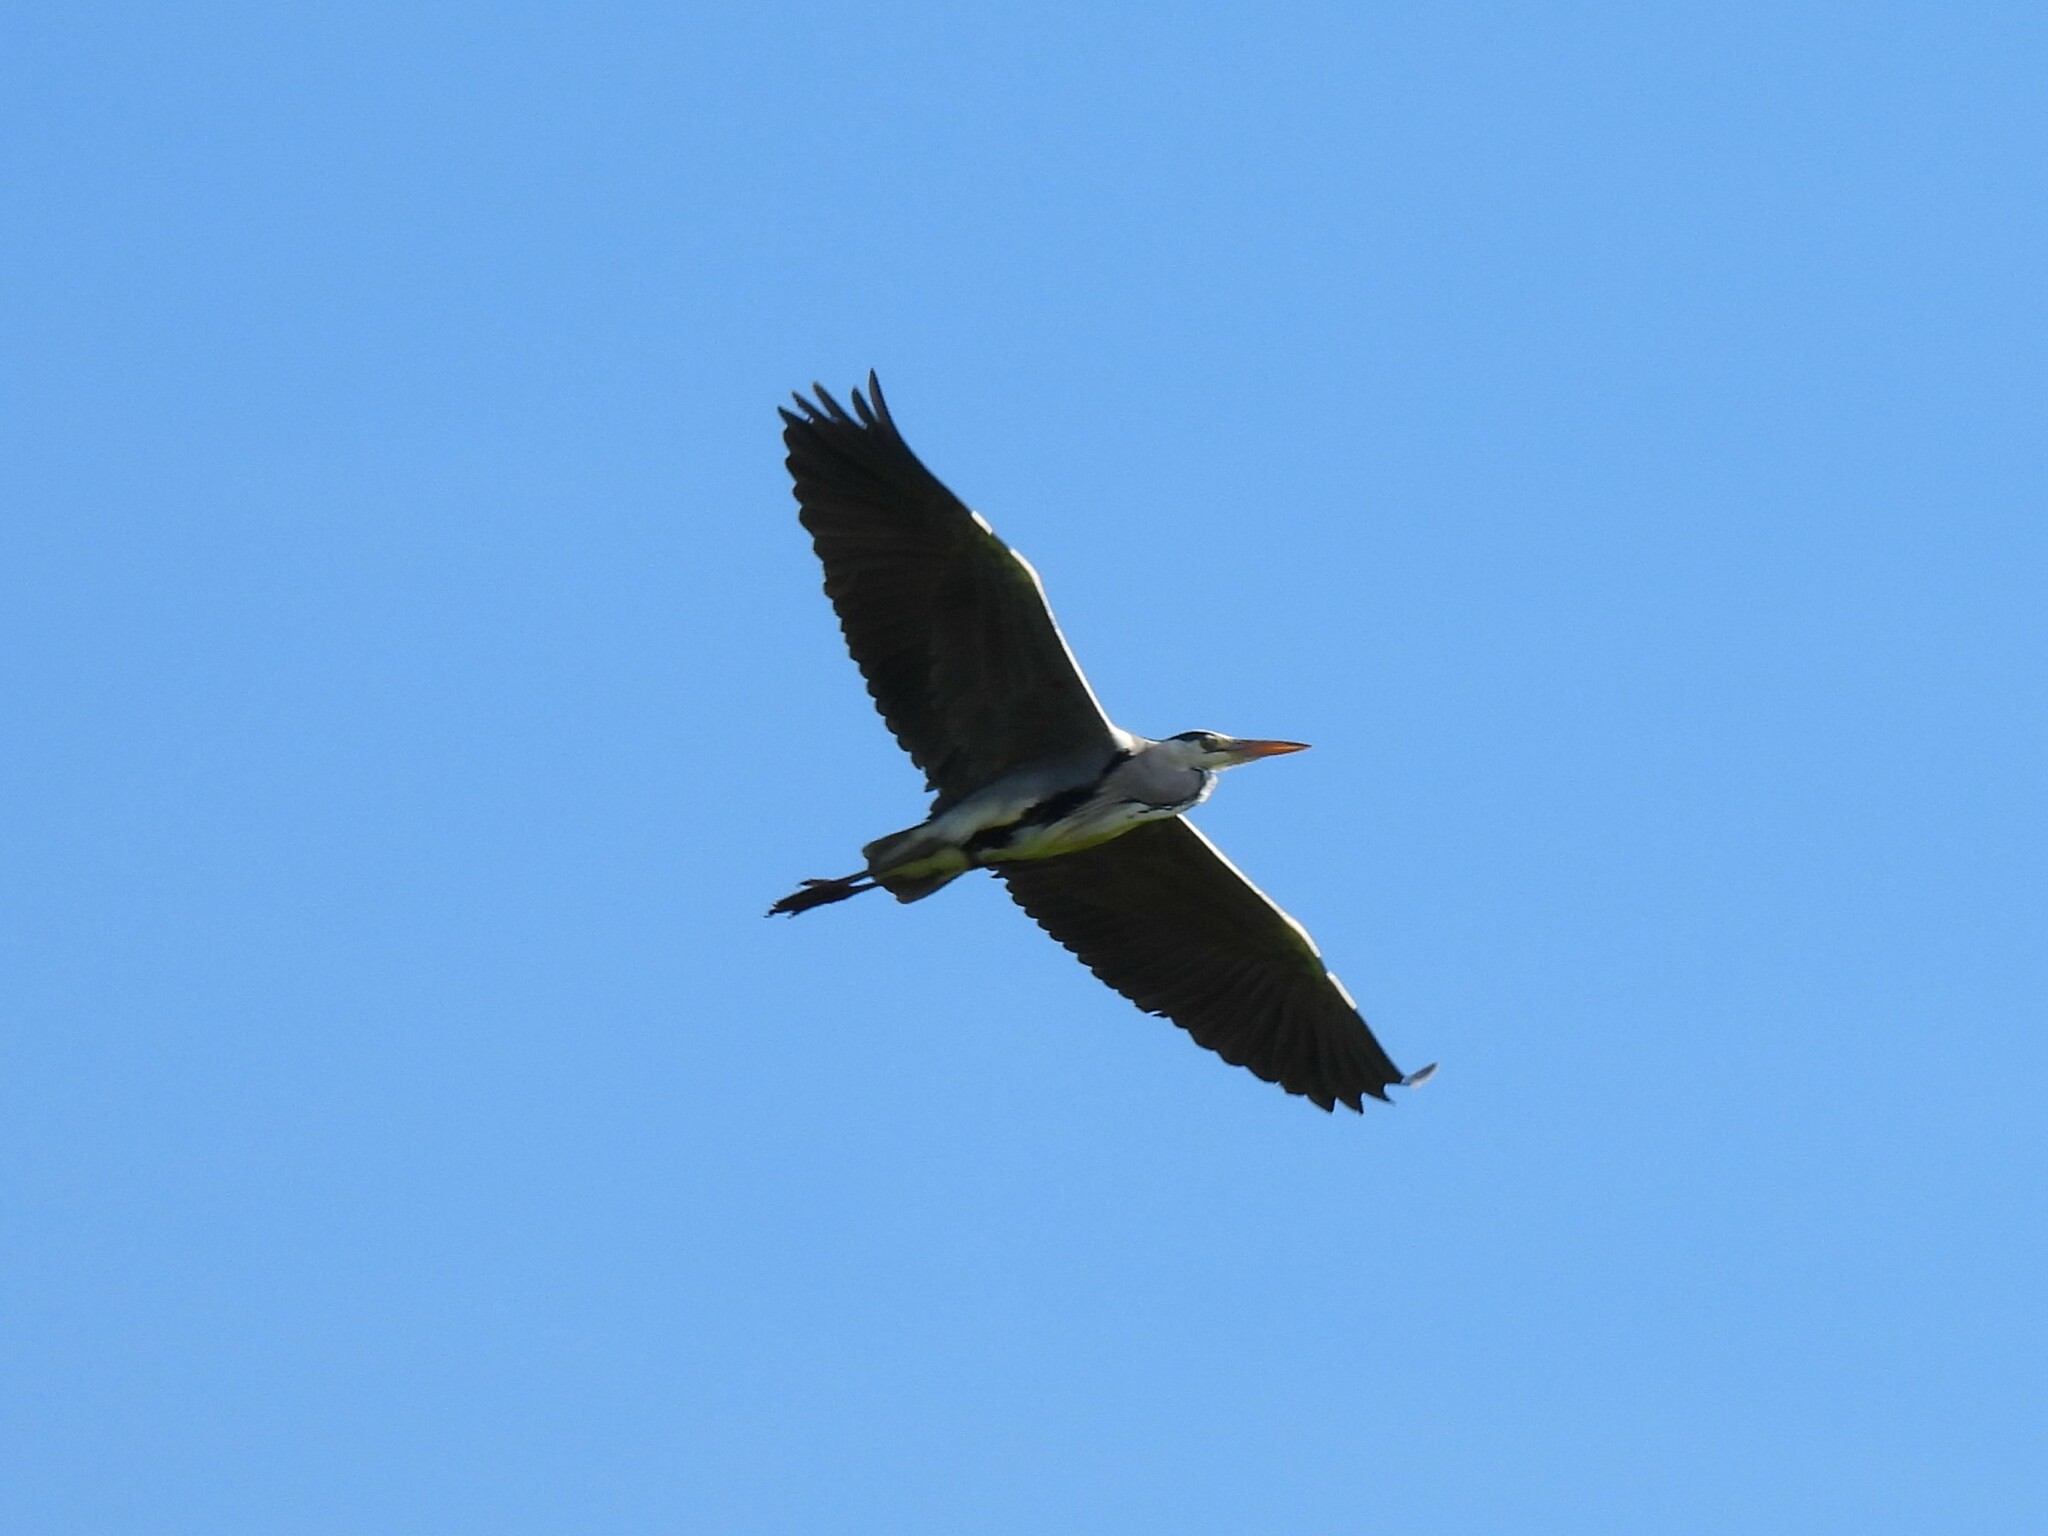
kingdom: Animalia
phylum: Chordata
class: Aves
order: Pelecaniformes
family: Ardeidae
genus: Ardea
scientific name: Ardea cinerea
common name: Grey heron
